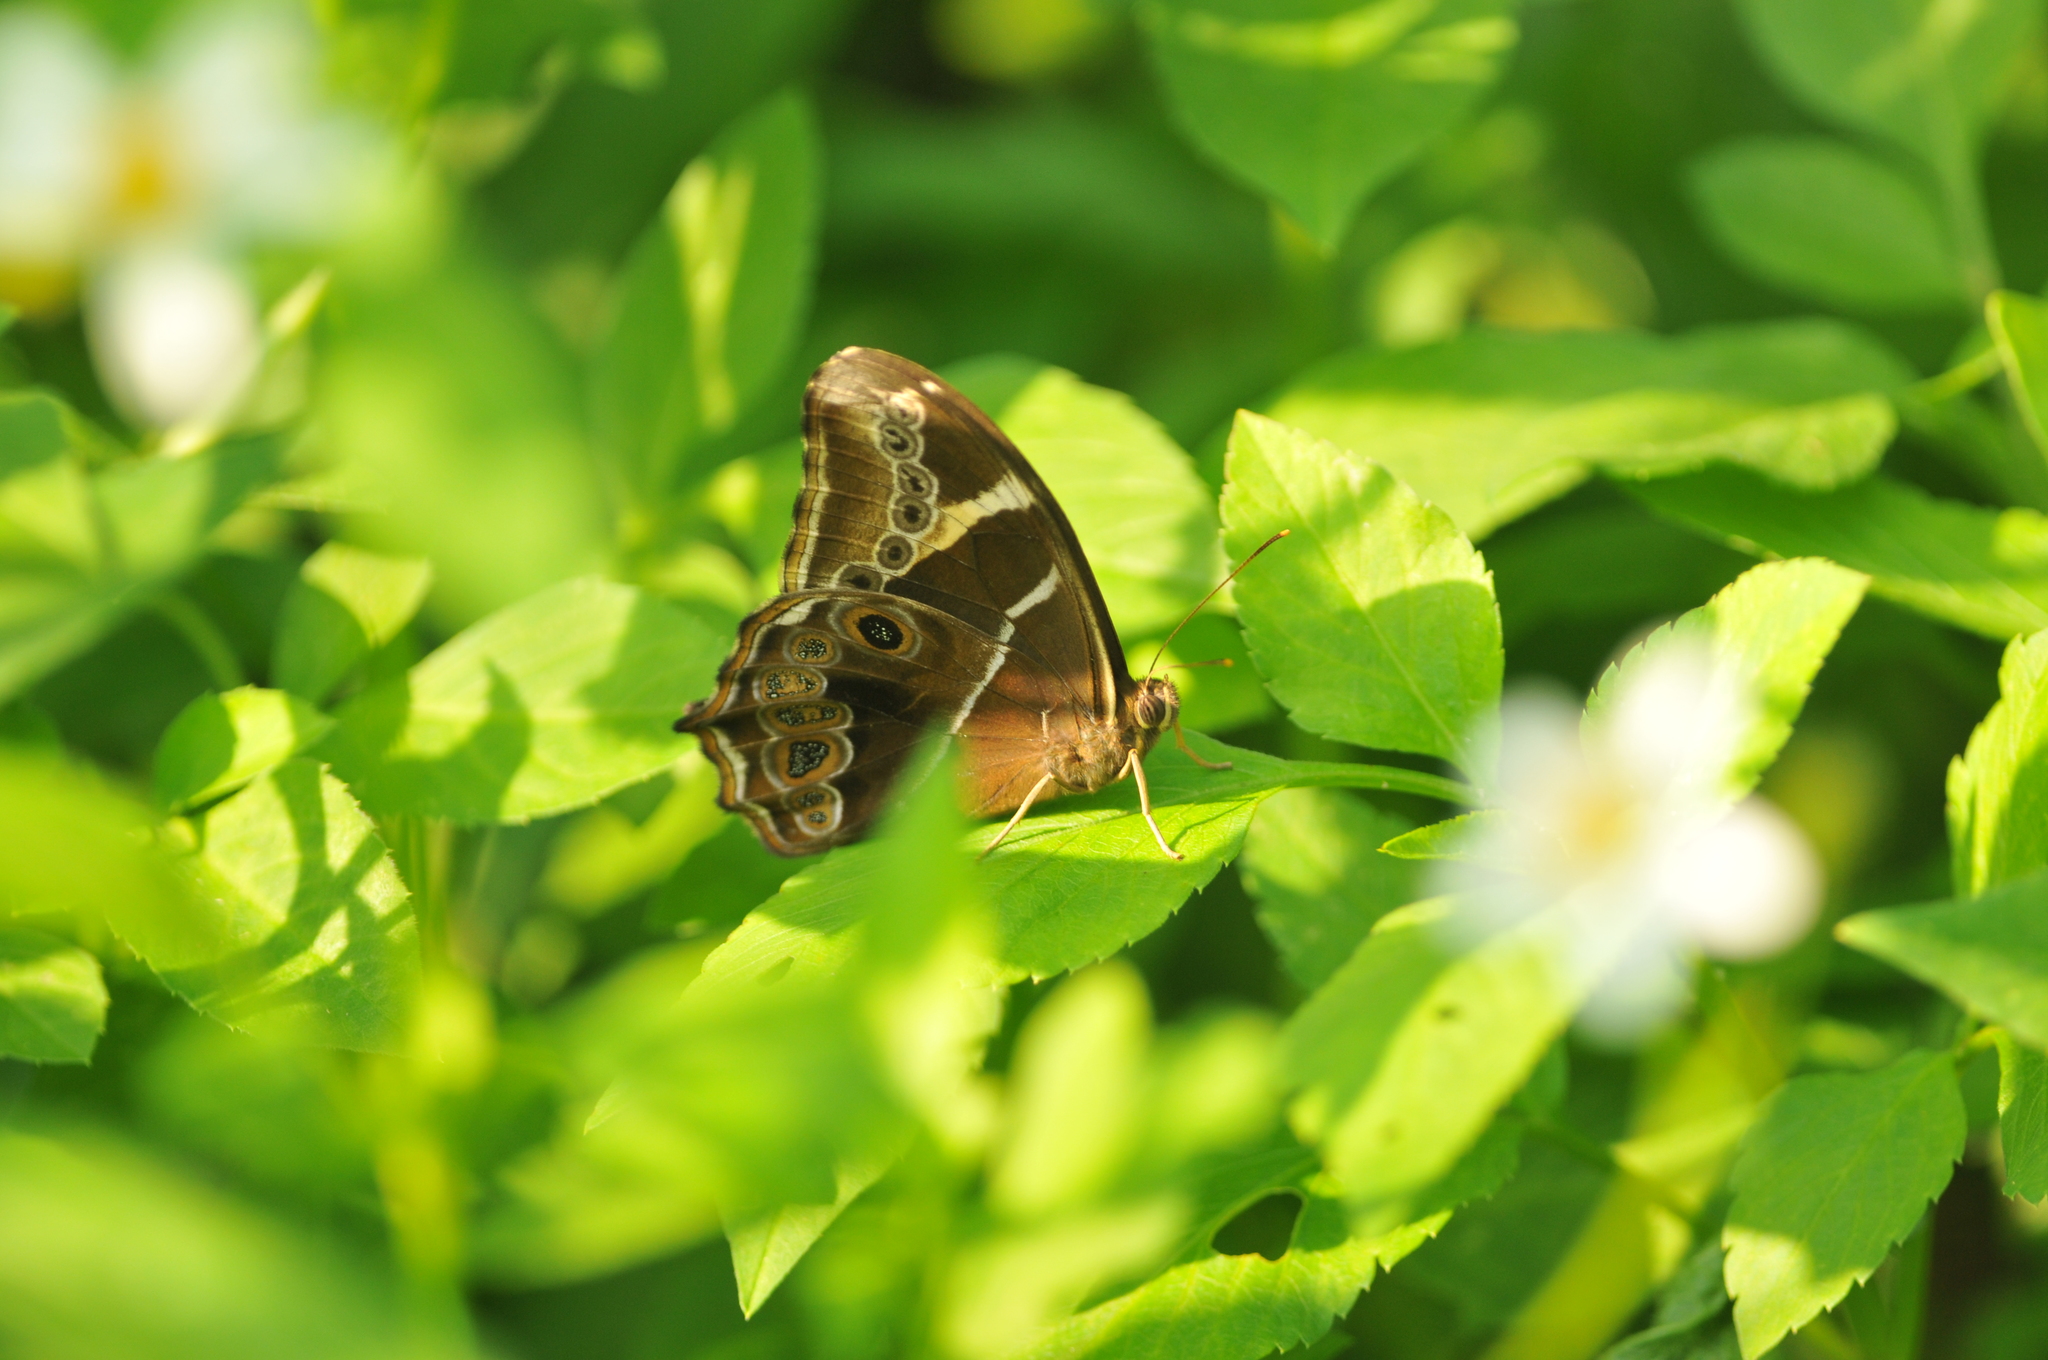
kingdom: Animalia
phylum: Arthropoda
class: Insecta
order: Lepidoptera
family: Nymphalidae
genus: Lethe
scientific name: Lethe europa
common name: Bamboo treebrown
